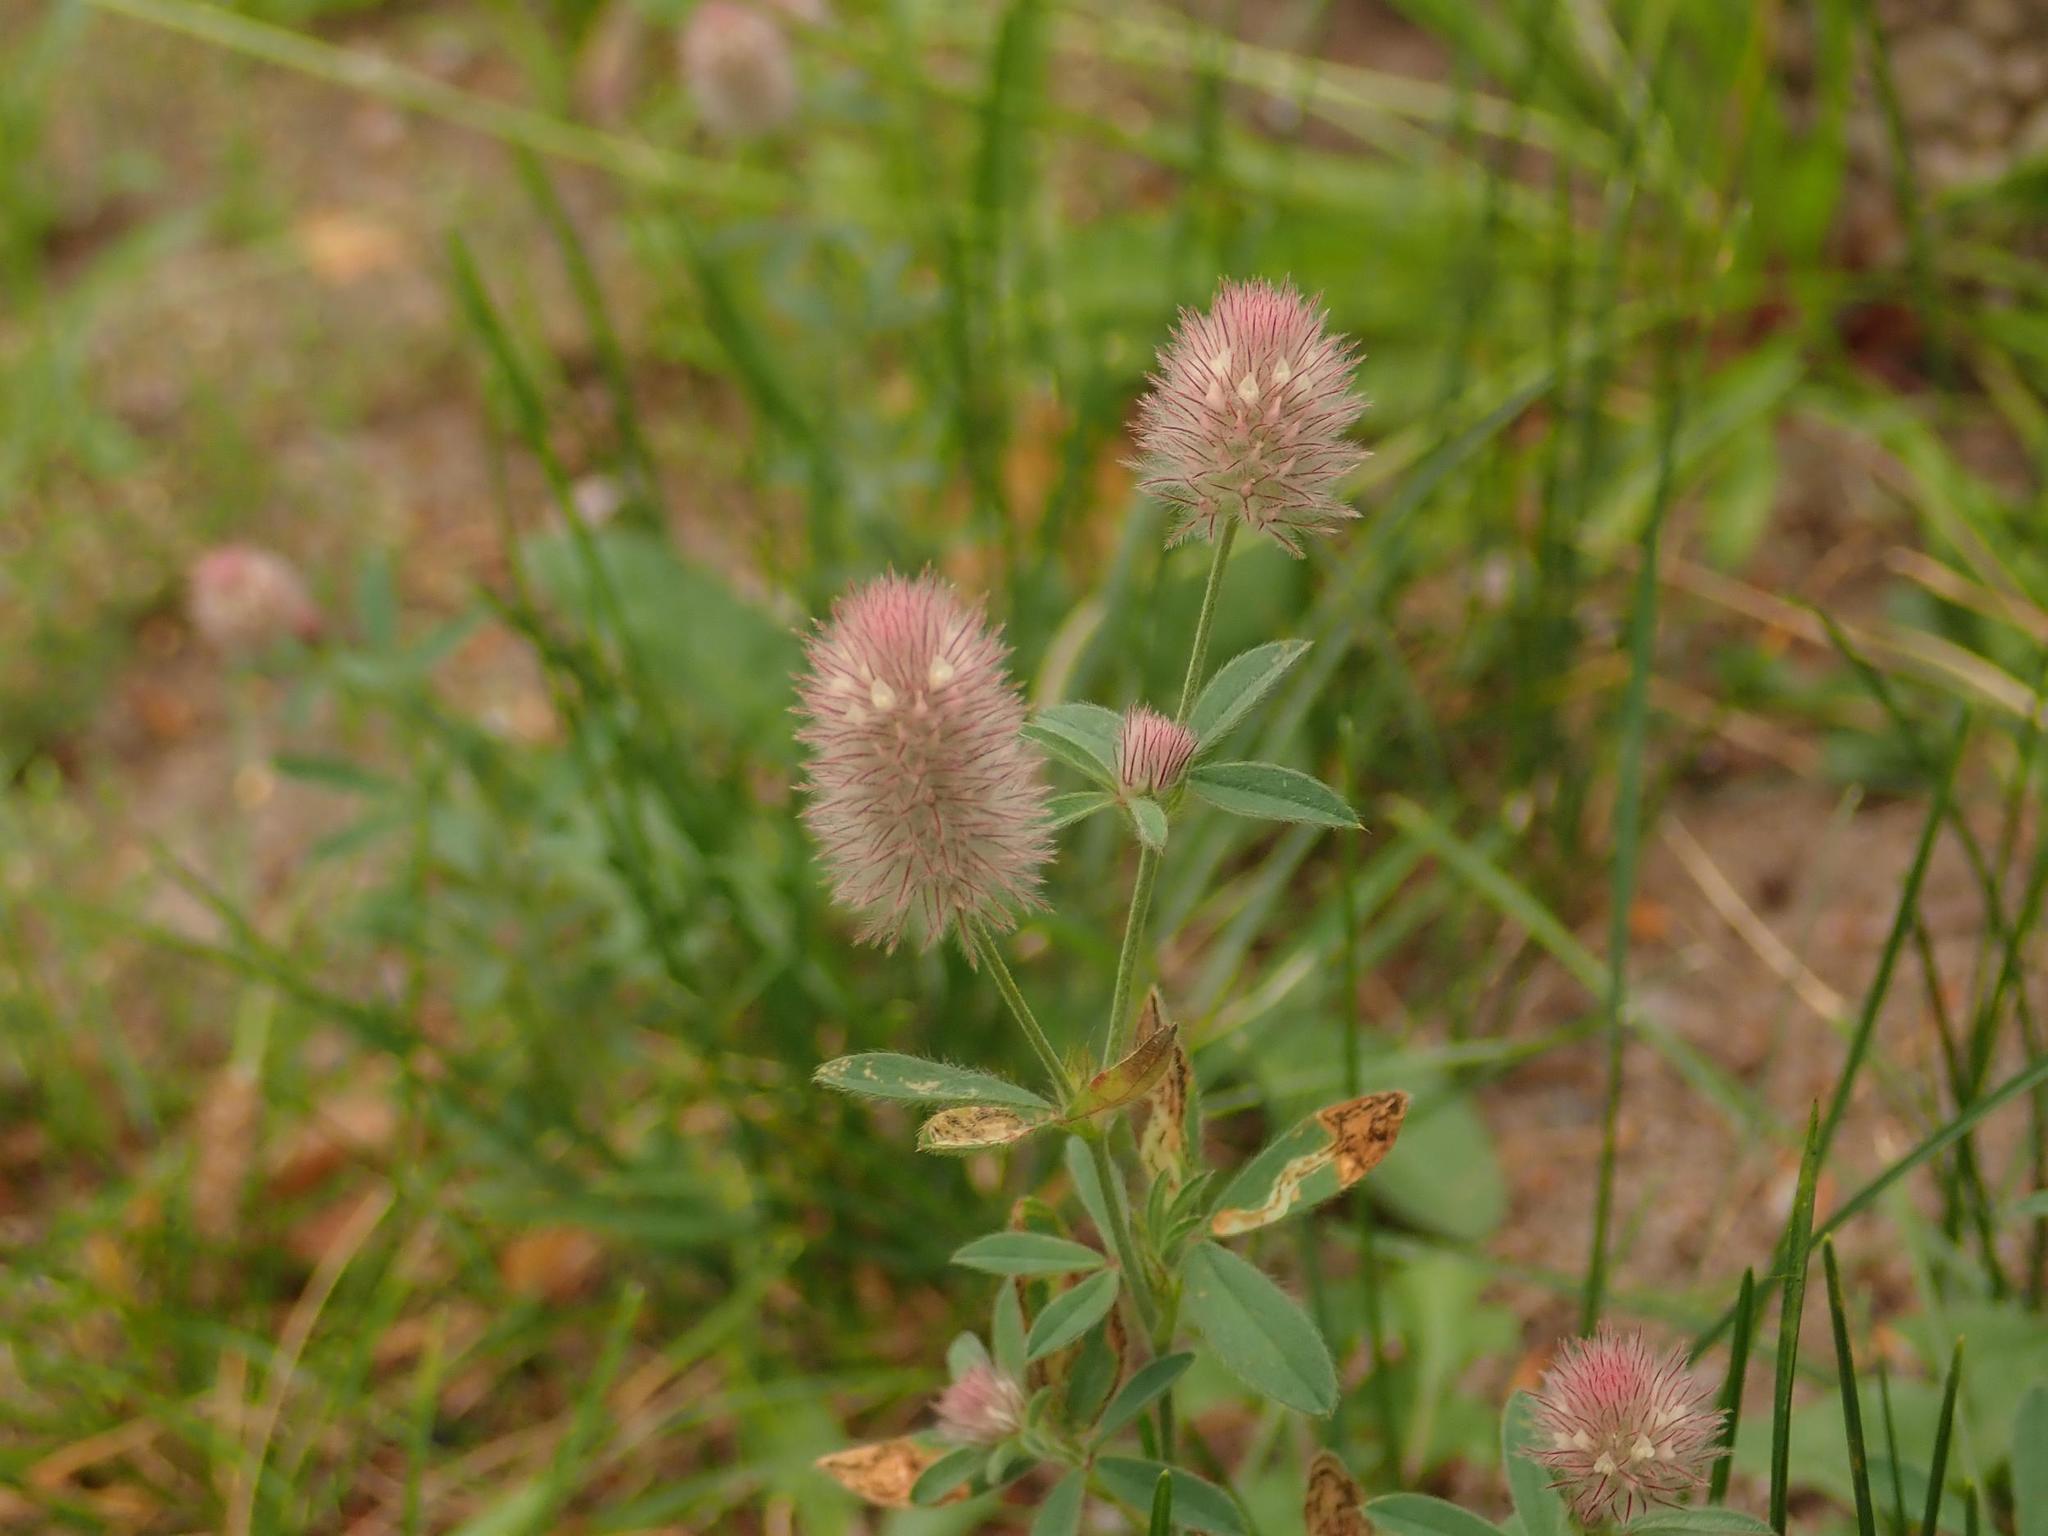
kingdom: Plantae
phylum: Tracheophyta
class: Magnoliopsida
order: Fabales
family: Fabaceae
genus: Trifolium
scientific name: Trifolium arvense
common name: Hare's-foot clover
